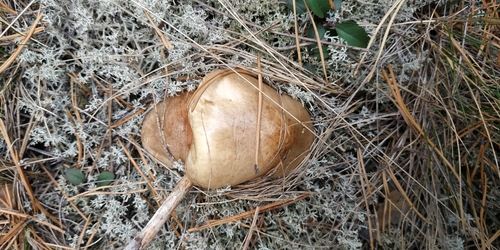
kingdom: Fungi
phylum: Basidiomycota
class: Agaricomycetes
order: Boletales
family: Suillaceae
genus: Suillus
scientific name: Suillus luteus
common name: Slippery jack
